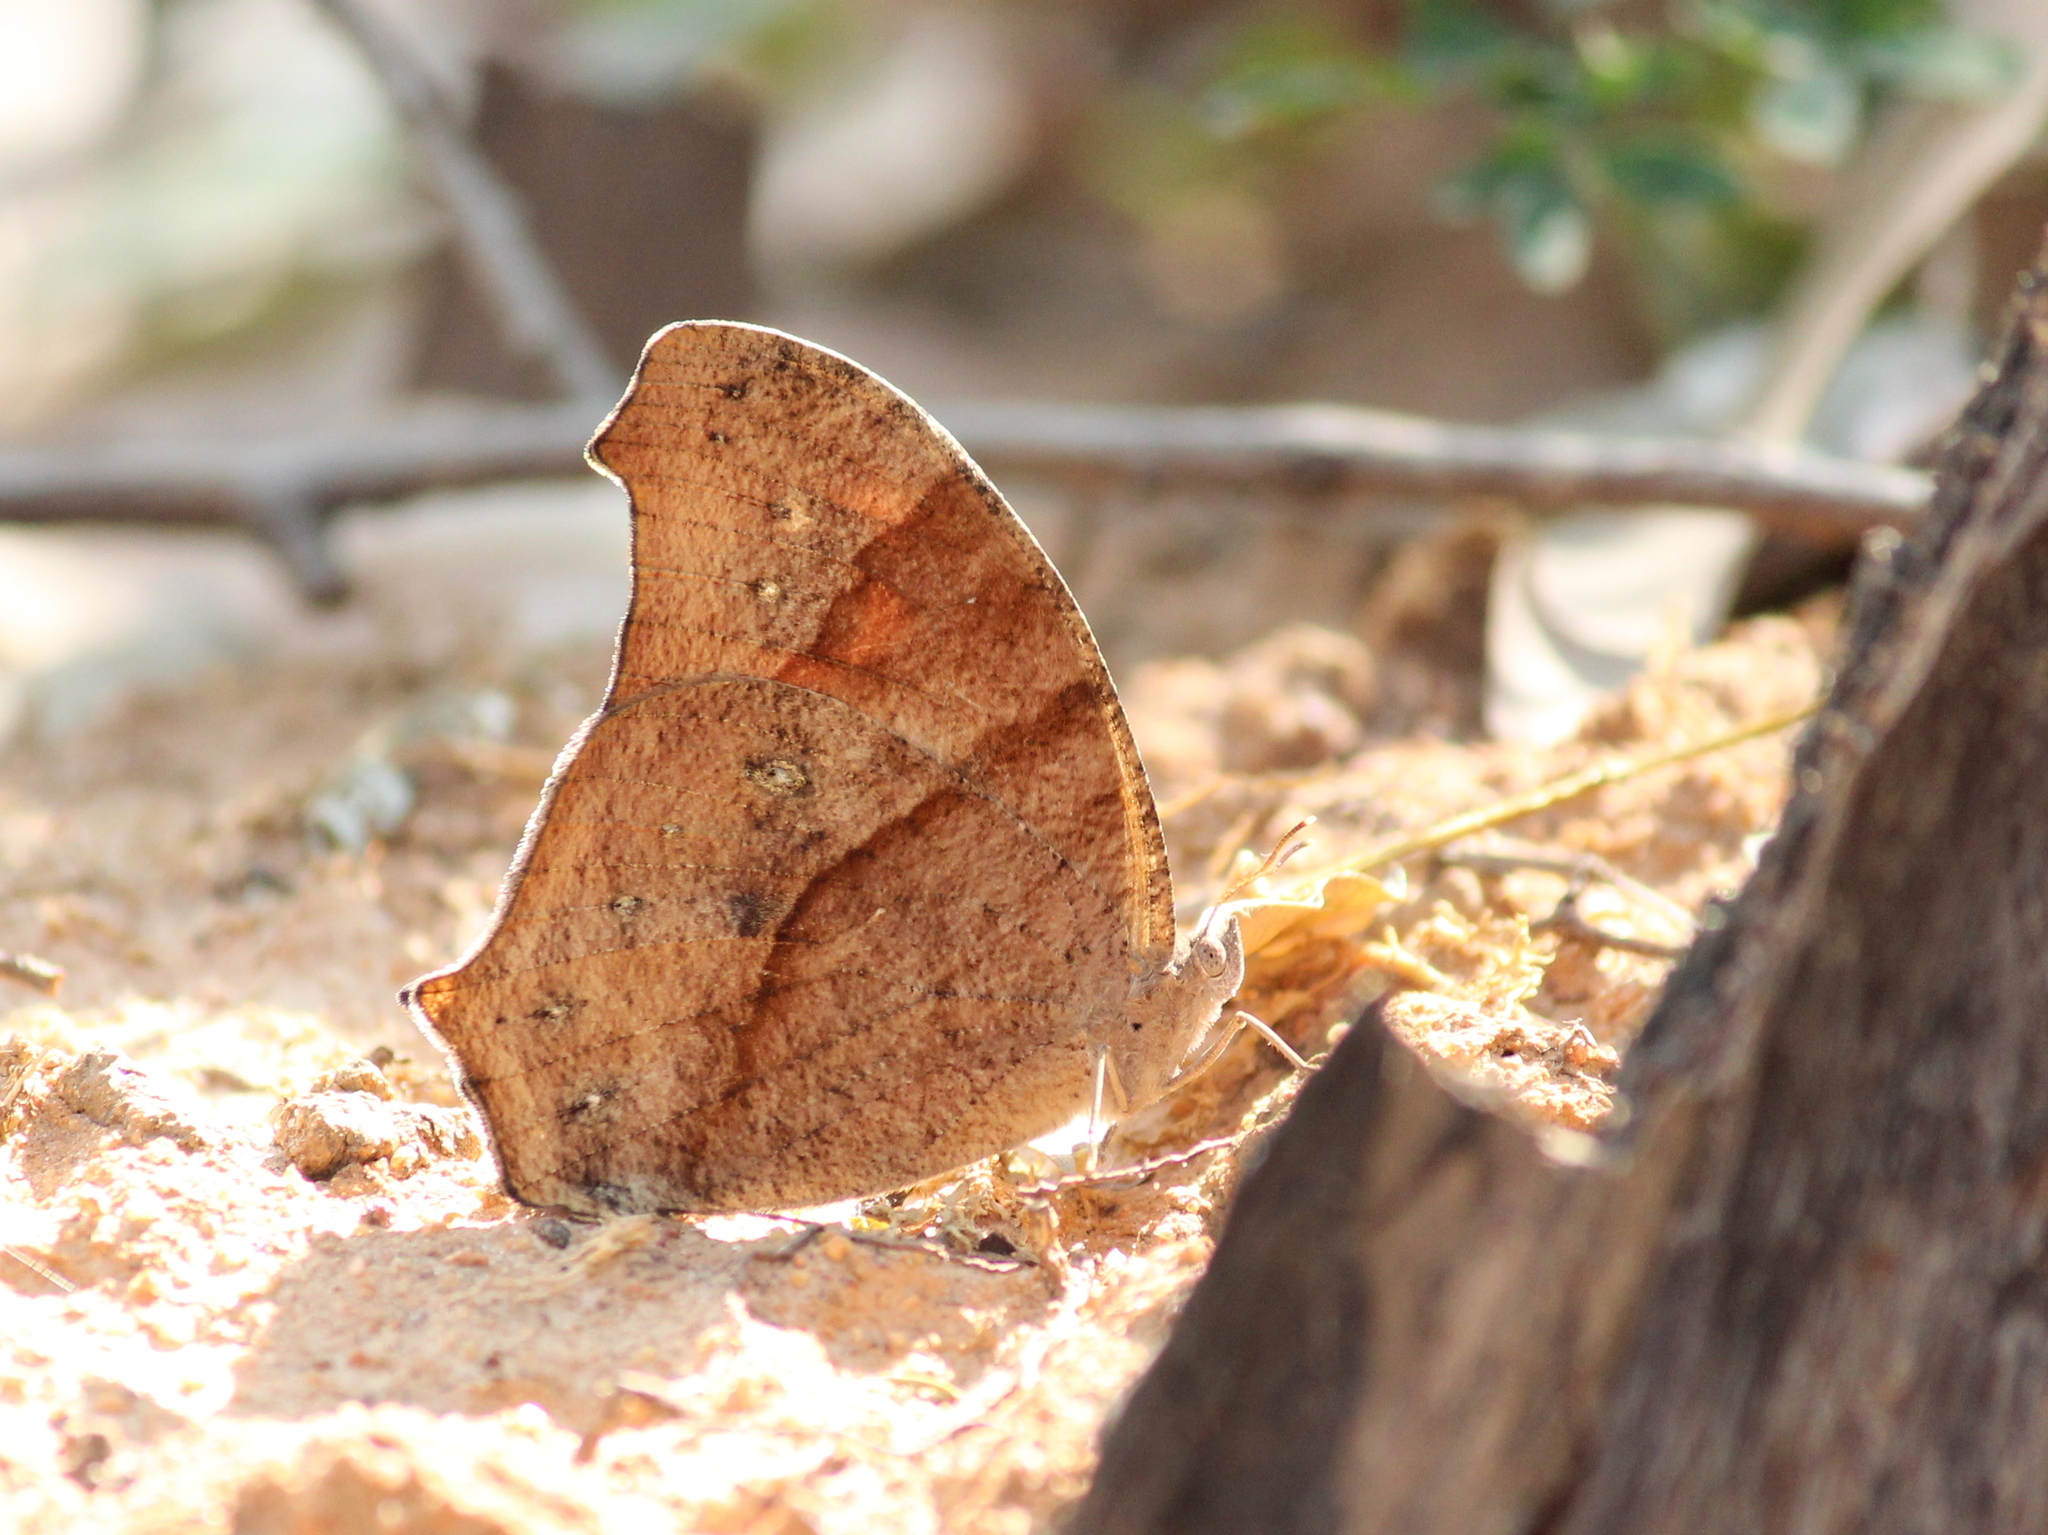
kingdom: Animalia
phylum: Arthropoda
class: Insecta
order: Lepidoptera
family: Nymphalidae
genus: Melanitis
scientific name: Melanitis leda
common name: Twilight brown
